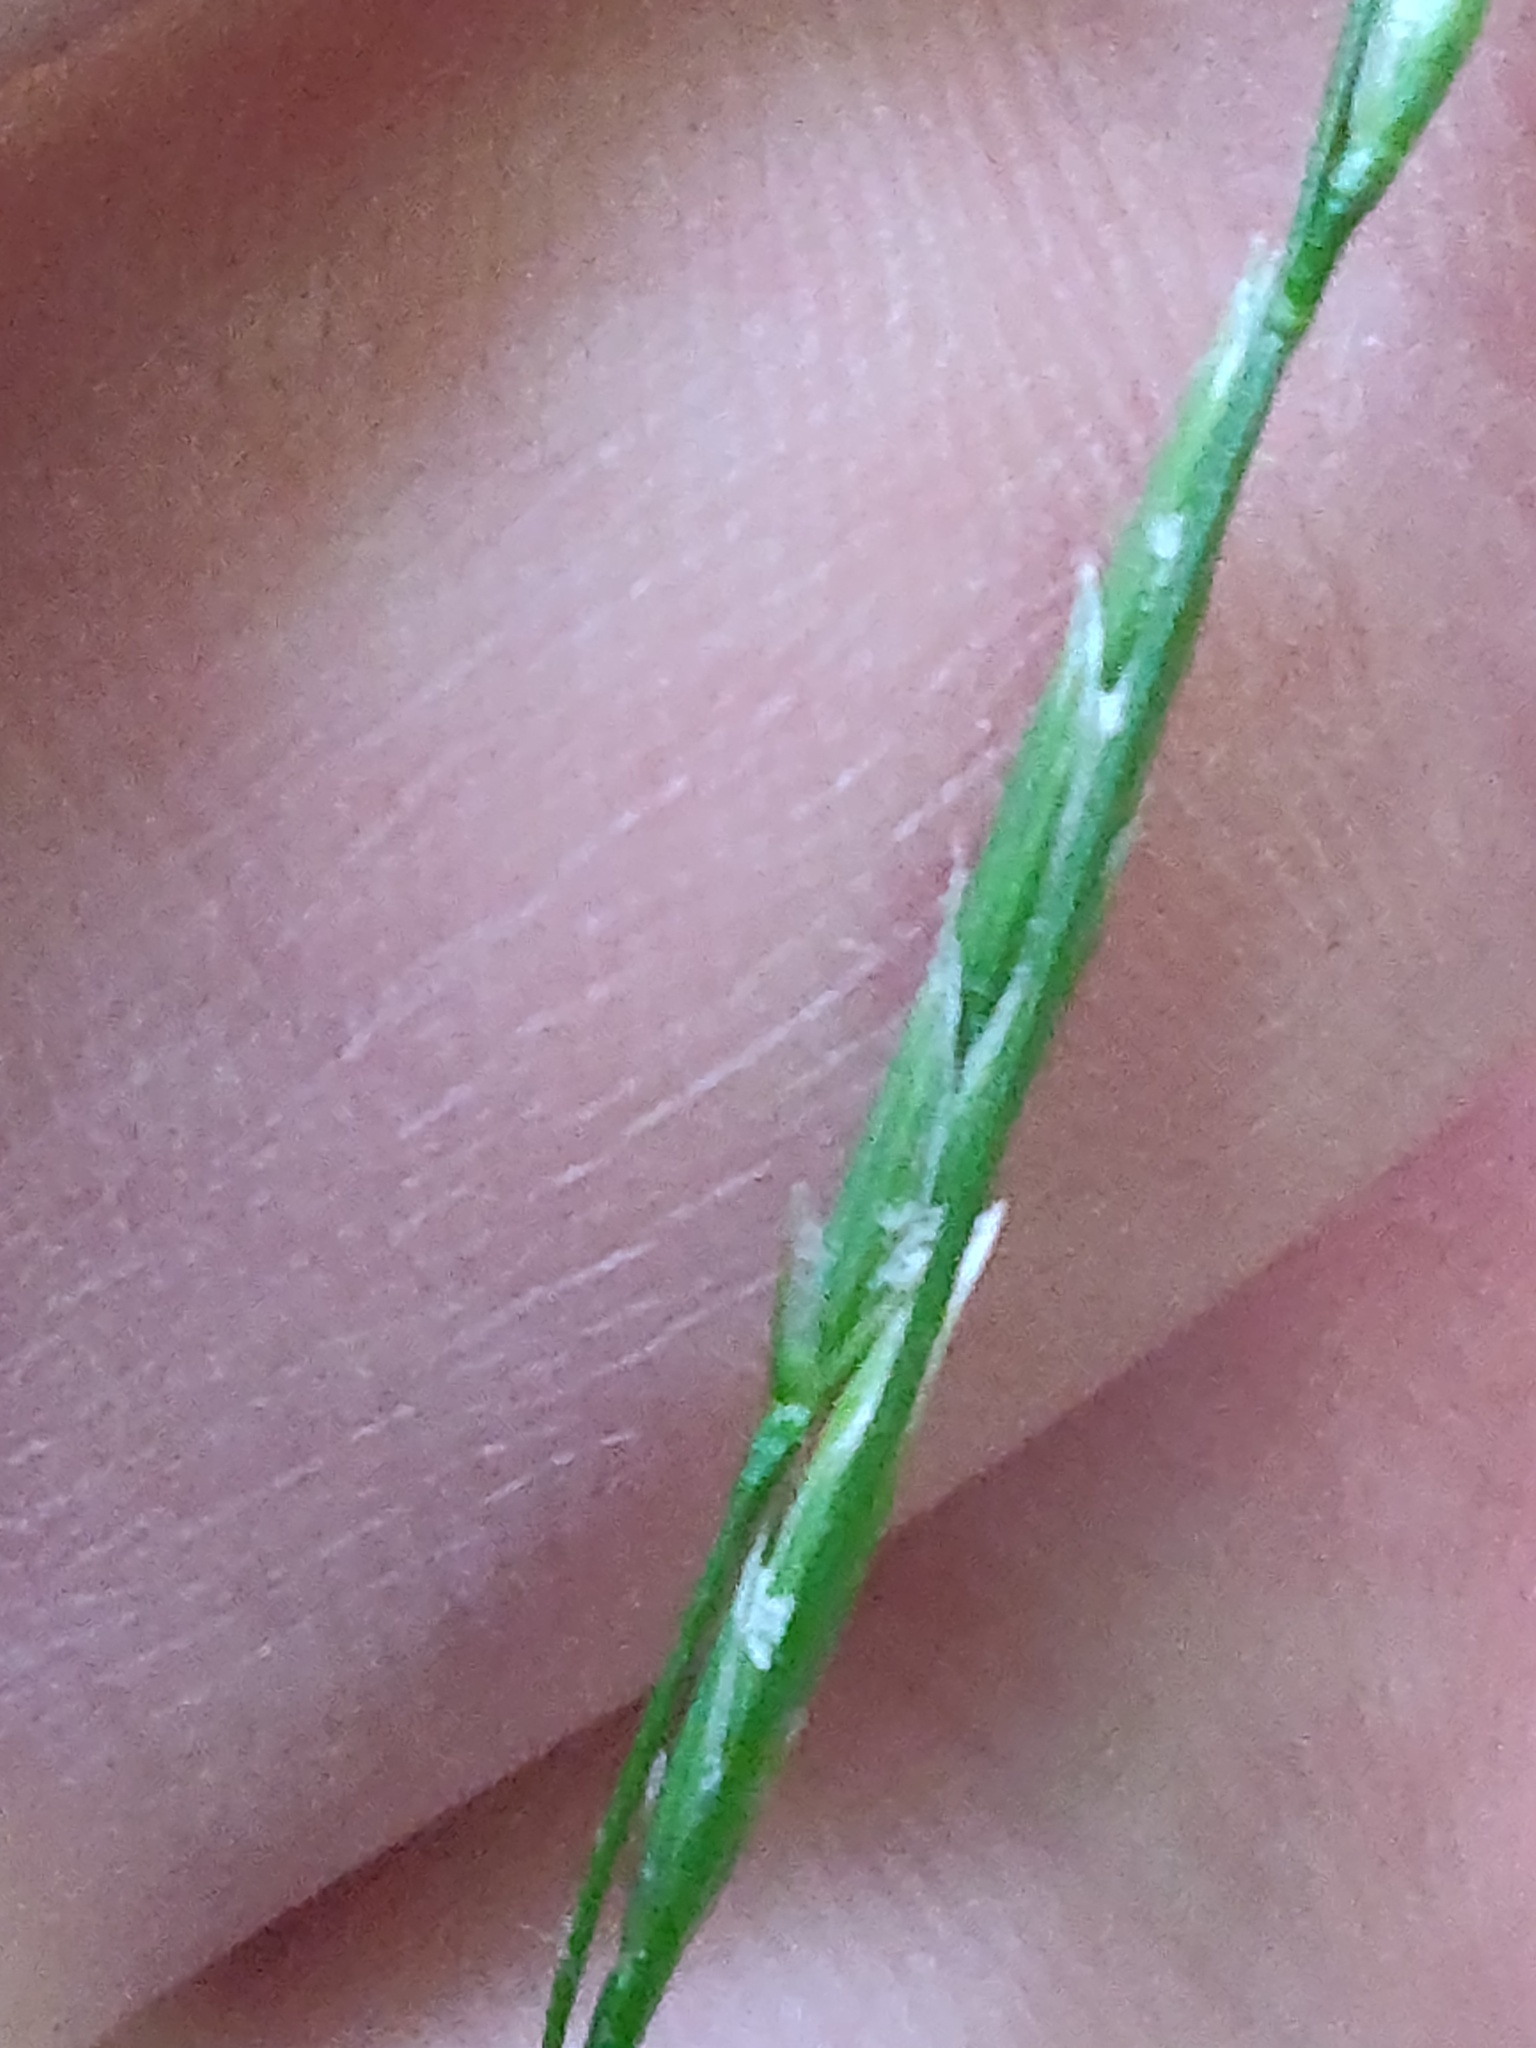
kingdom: Plantae
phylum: Tracheophyta
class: Liliopsida
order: Poales
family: Poaceae
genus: Glyceria
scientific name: Glyceria fluitans
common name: Floating sweet-grass
